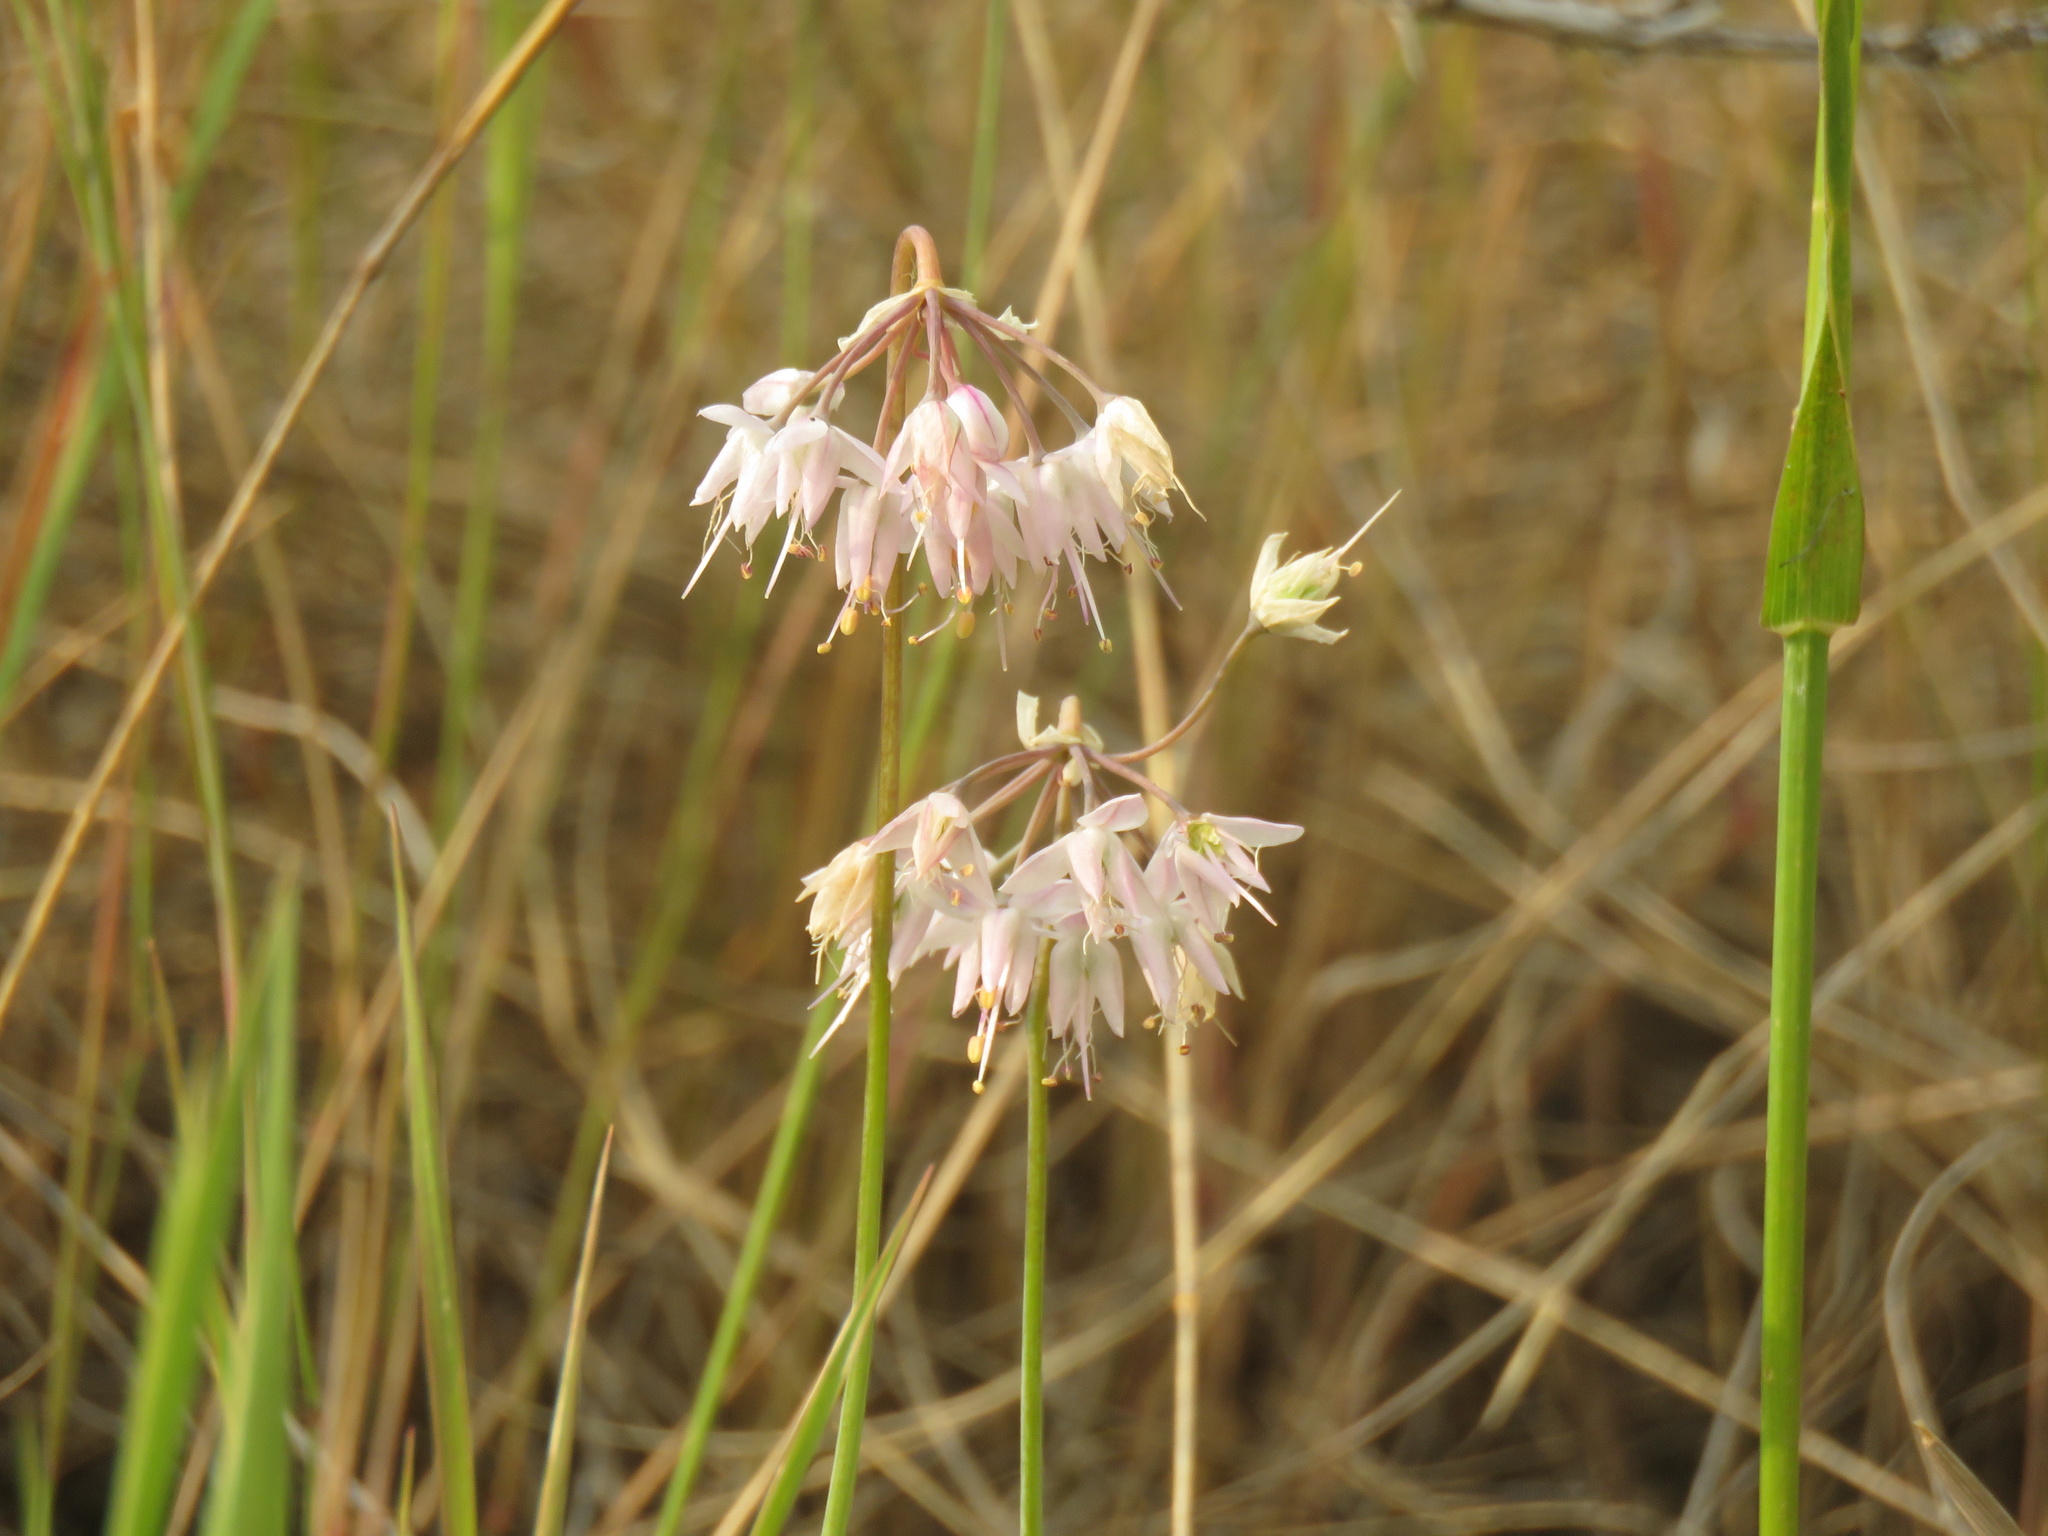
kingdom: Plantae
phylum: Tracheophyta
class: Liliopsida
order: Asparagales
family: Amaryllidaceae
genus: Allium
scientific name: Allium cernuum
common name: Nodding onion
